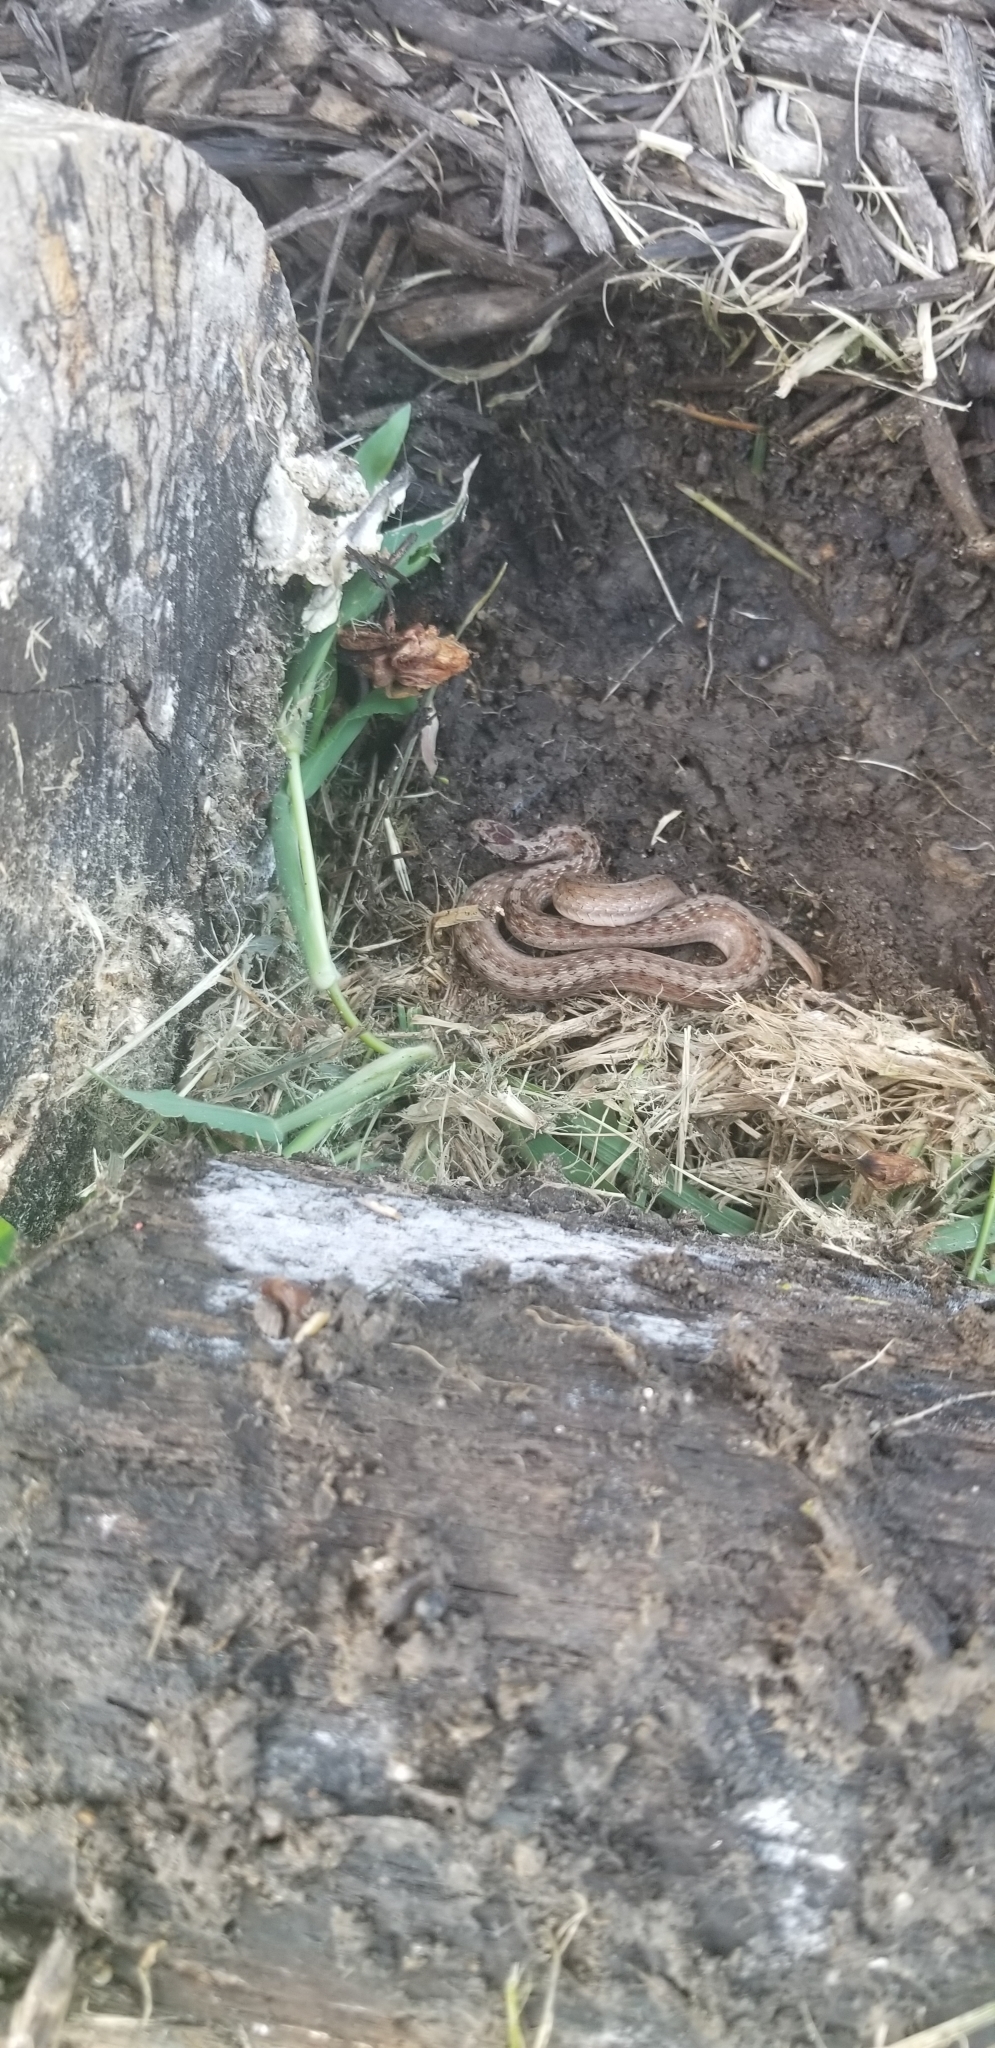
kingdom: Animalia
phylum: Chordata
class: Squamata
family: Colubridae
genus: Storeria
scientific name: Storeria dekayi
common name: (dekay’s) brown snake
